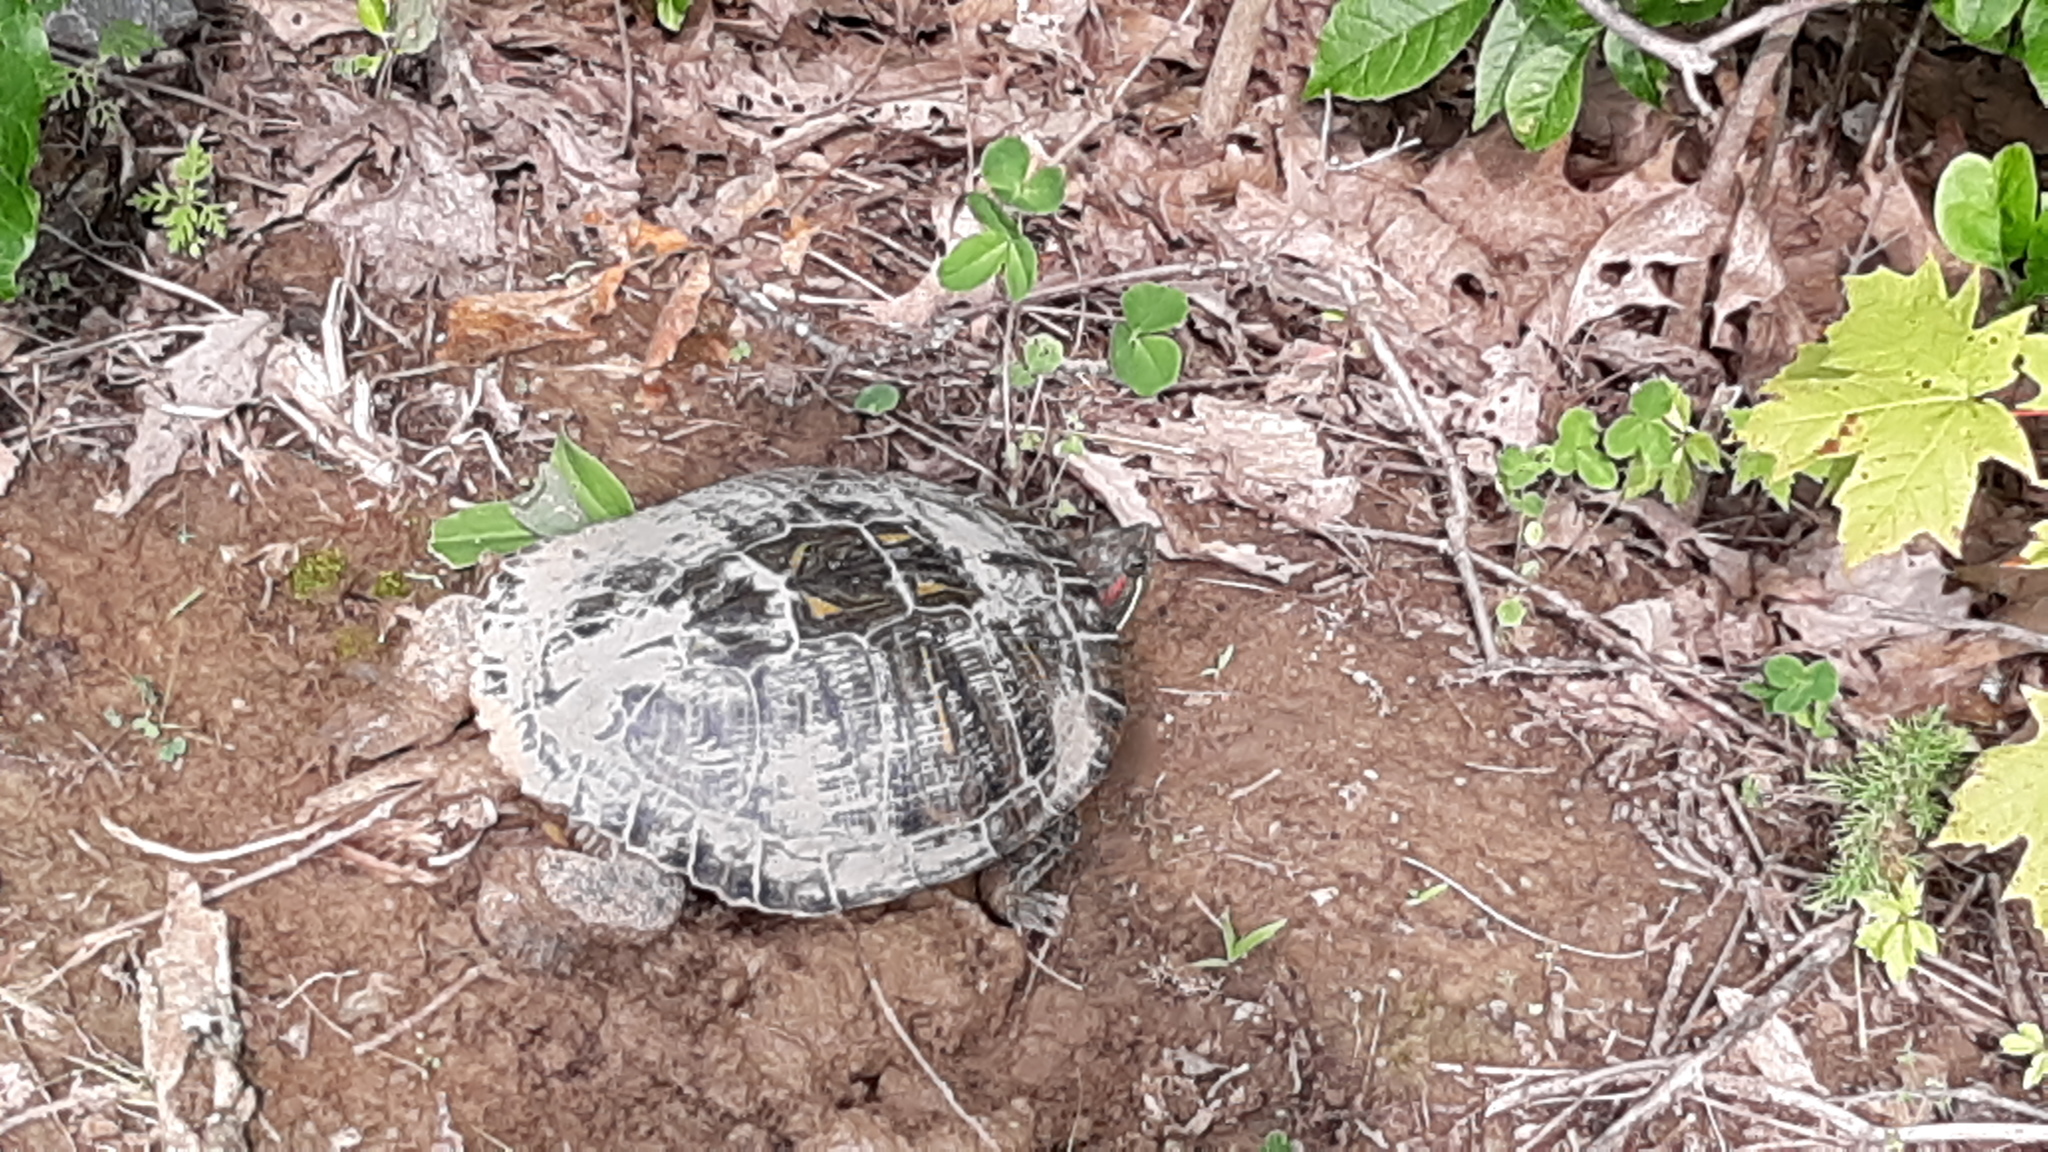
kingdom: Animalia
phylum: Chordata
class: Testudines
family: Emydidae
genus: Trachemys
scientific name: Trachemys scripta
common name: Slider
